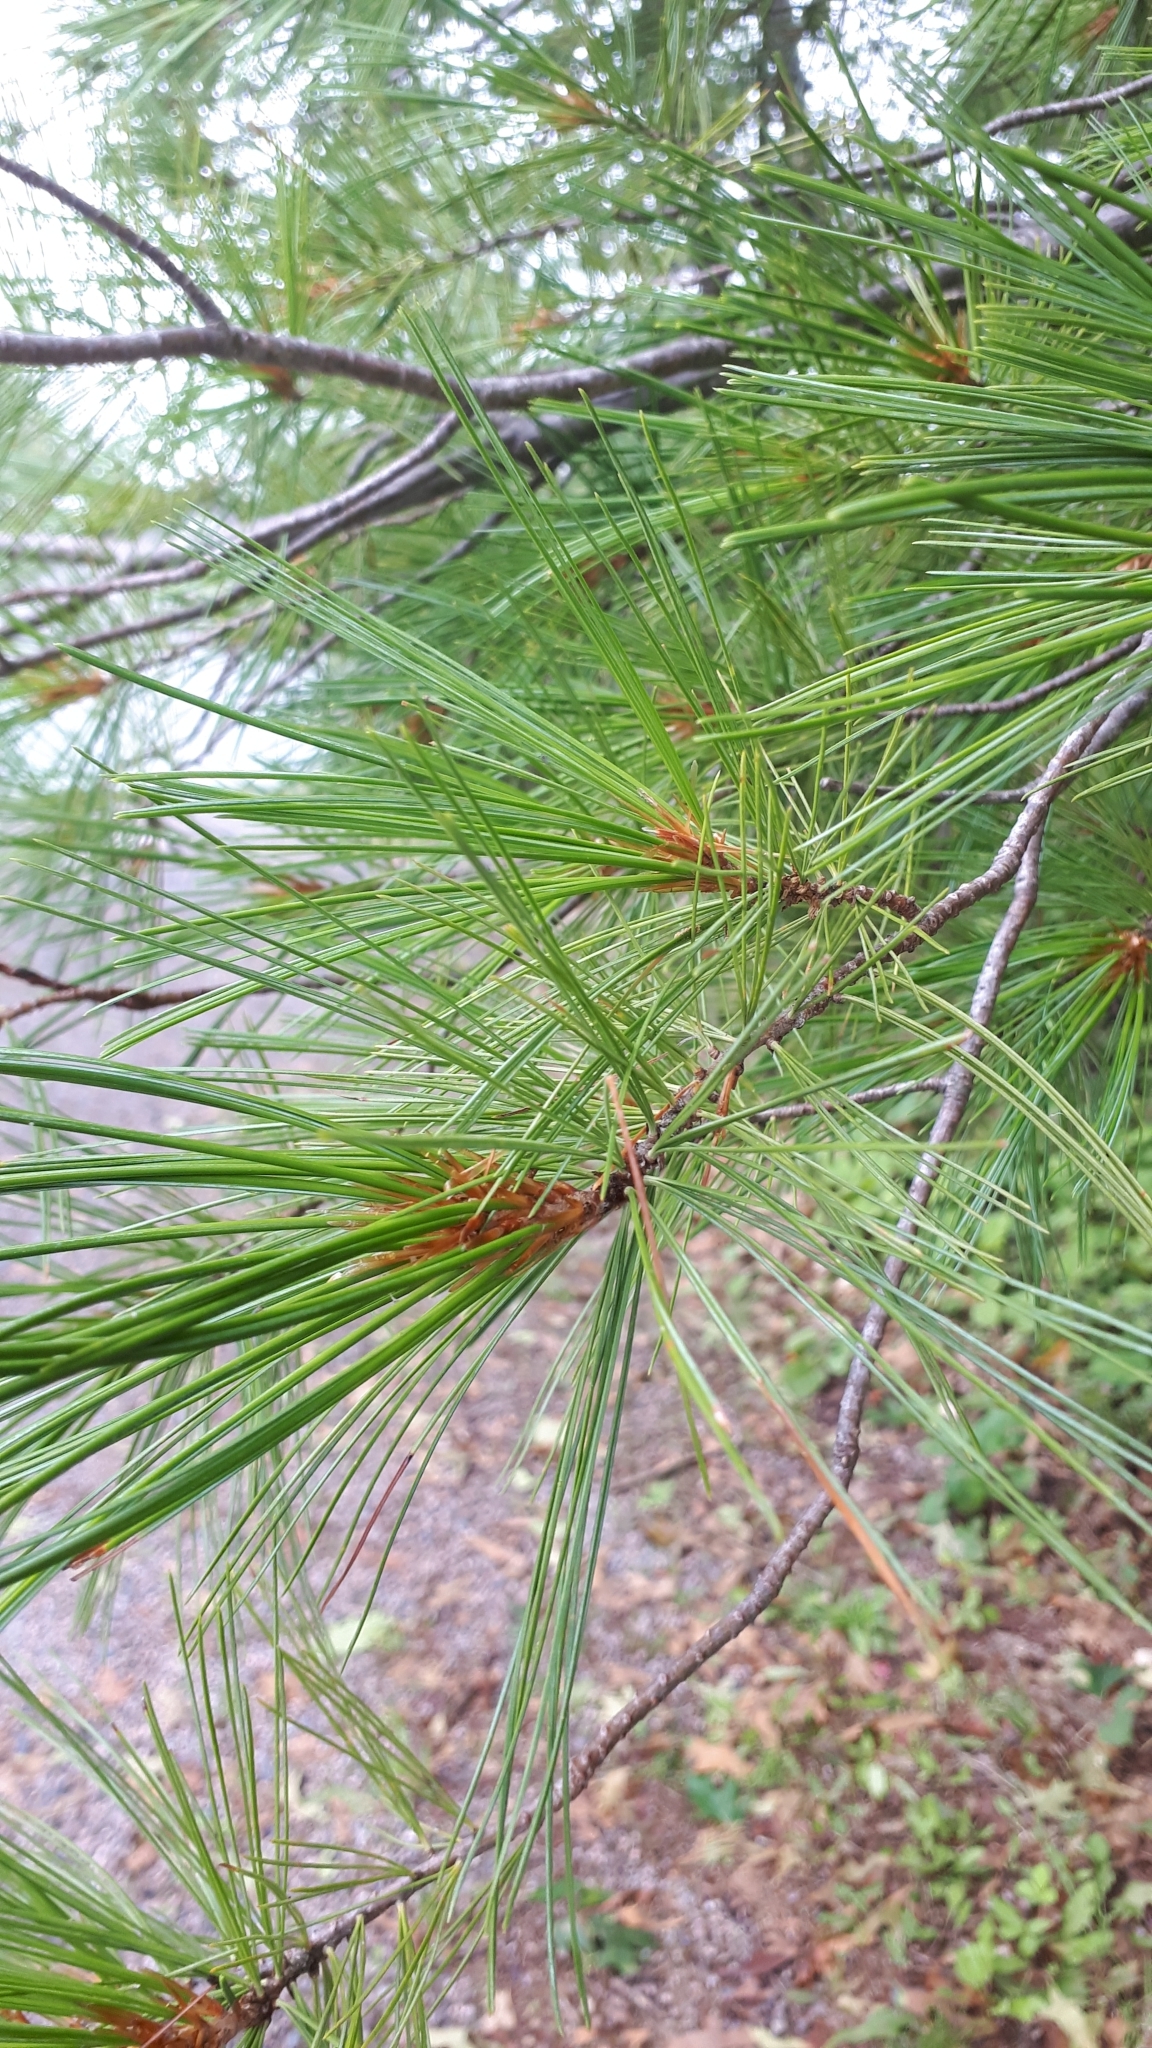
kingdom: Plantae
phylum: Tracheophyta
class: Pinopsida
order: Pinales
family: Pinaceae
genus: Pinus
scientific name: Pinus strobus
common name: Weymouth pine
